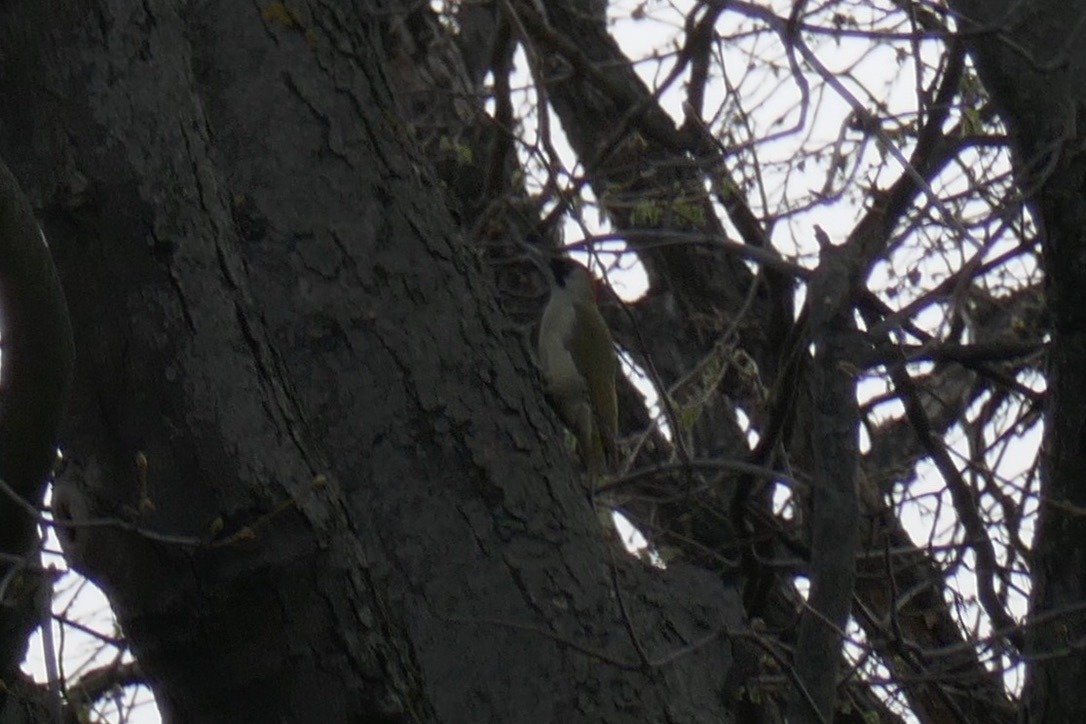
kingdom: Animalia
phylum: Chordata
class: Aves
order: Piciformes
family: Picidae
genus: Picus
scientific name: Picus viridis
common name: European green woodpecker
